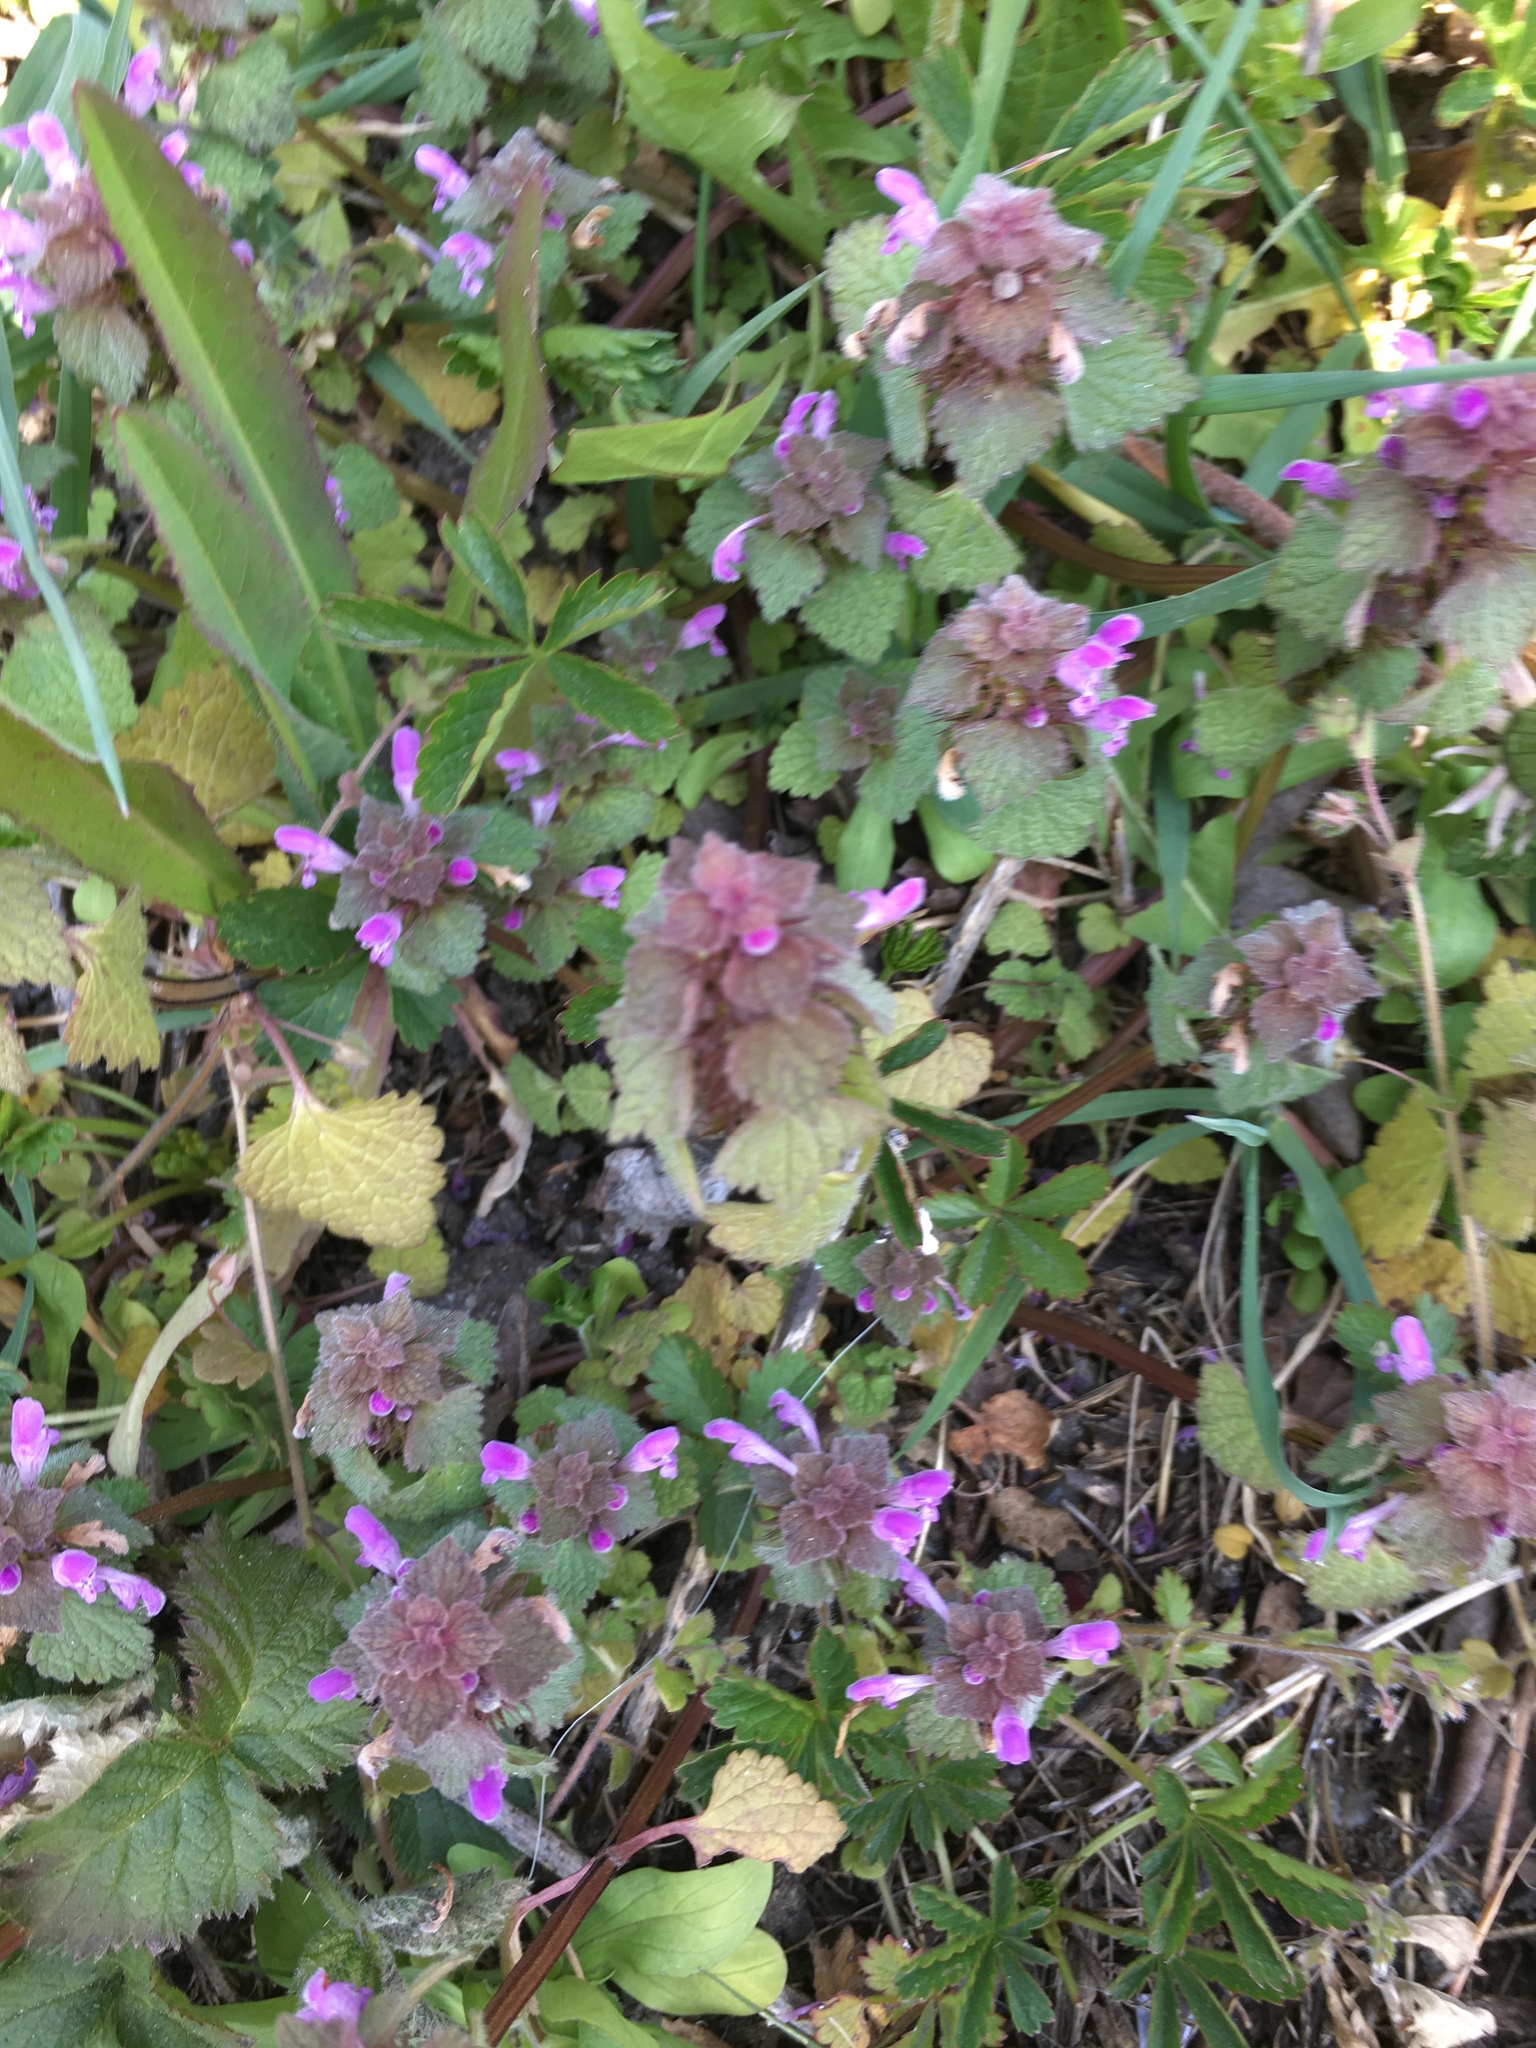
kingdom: Plantae
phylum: Tracheophyta
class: Magnoliopsida
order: Lamiales
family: Lamiaceae
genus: Lamium
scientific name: Lamium purpureum
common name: Red dead-nettle
